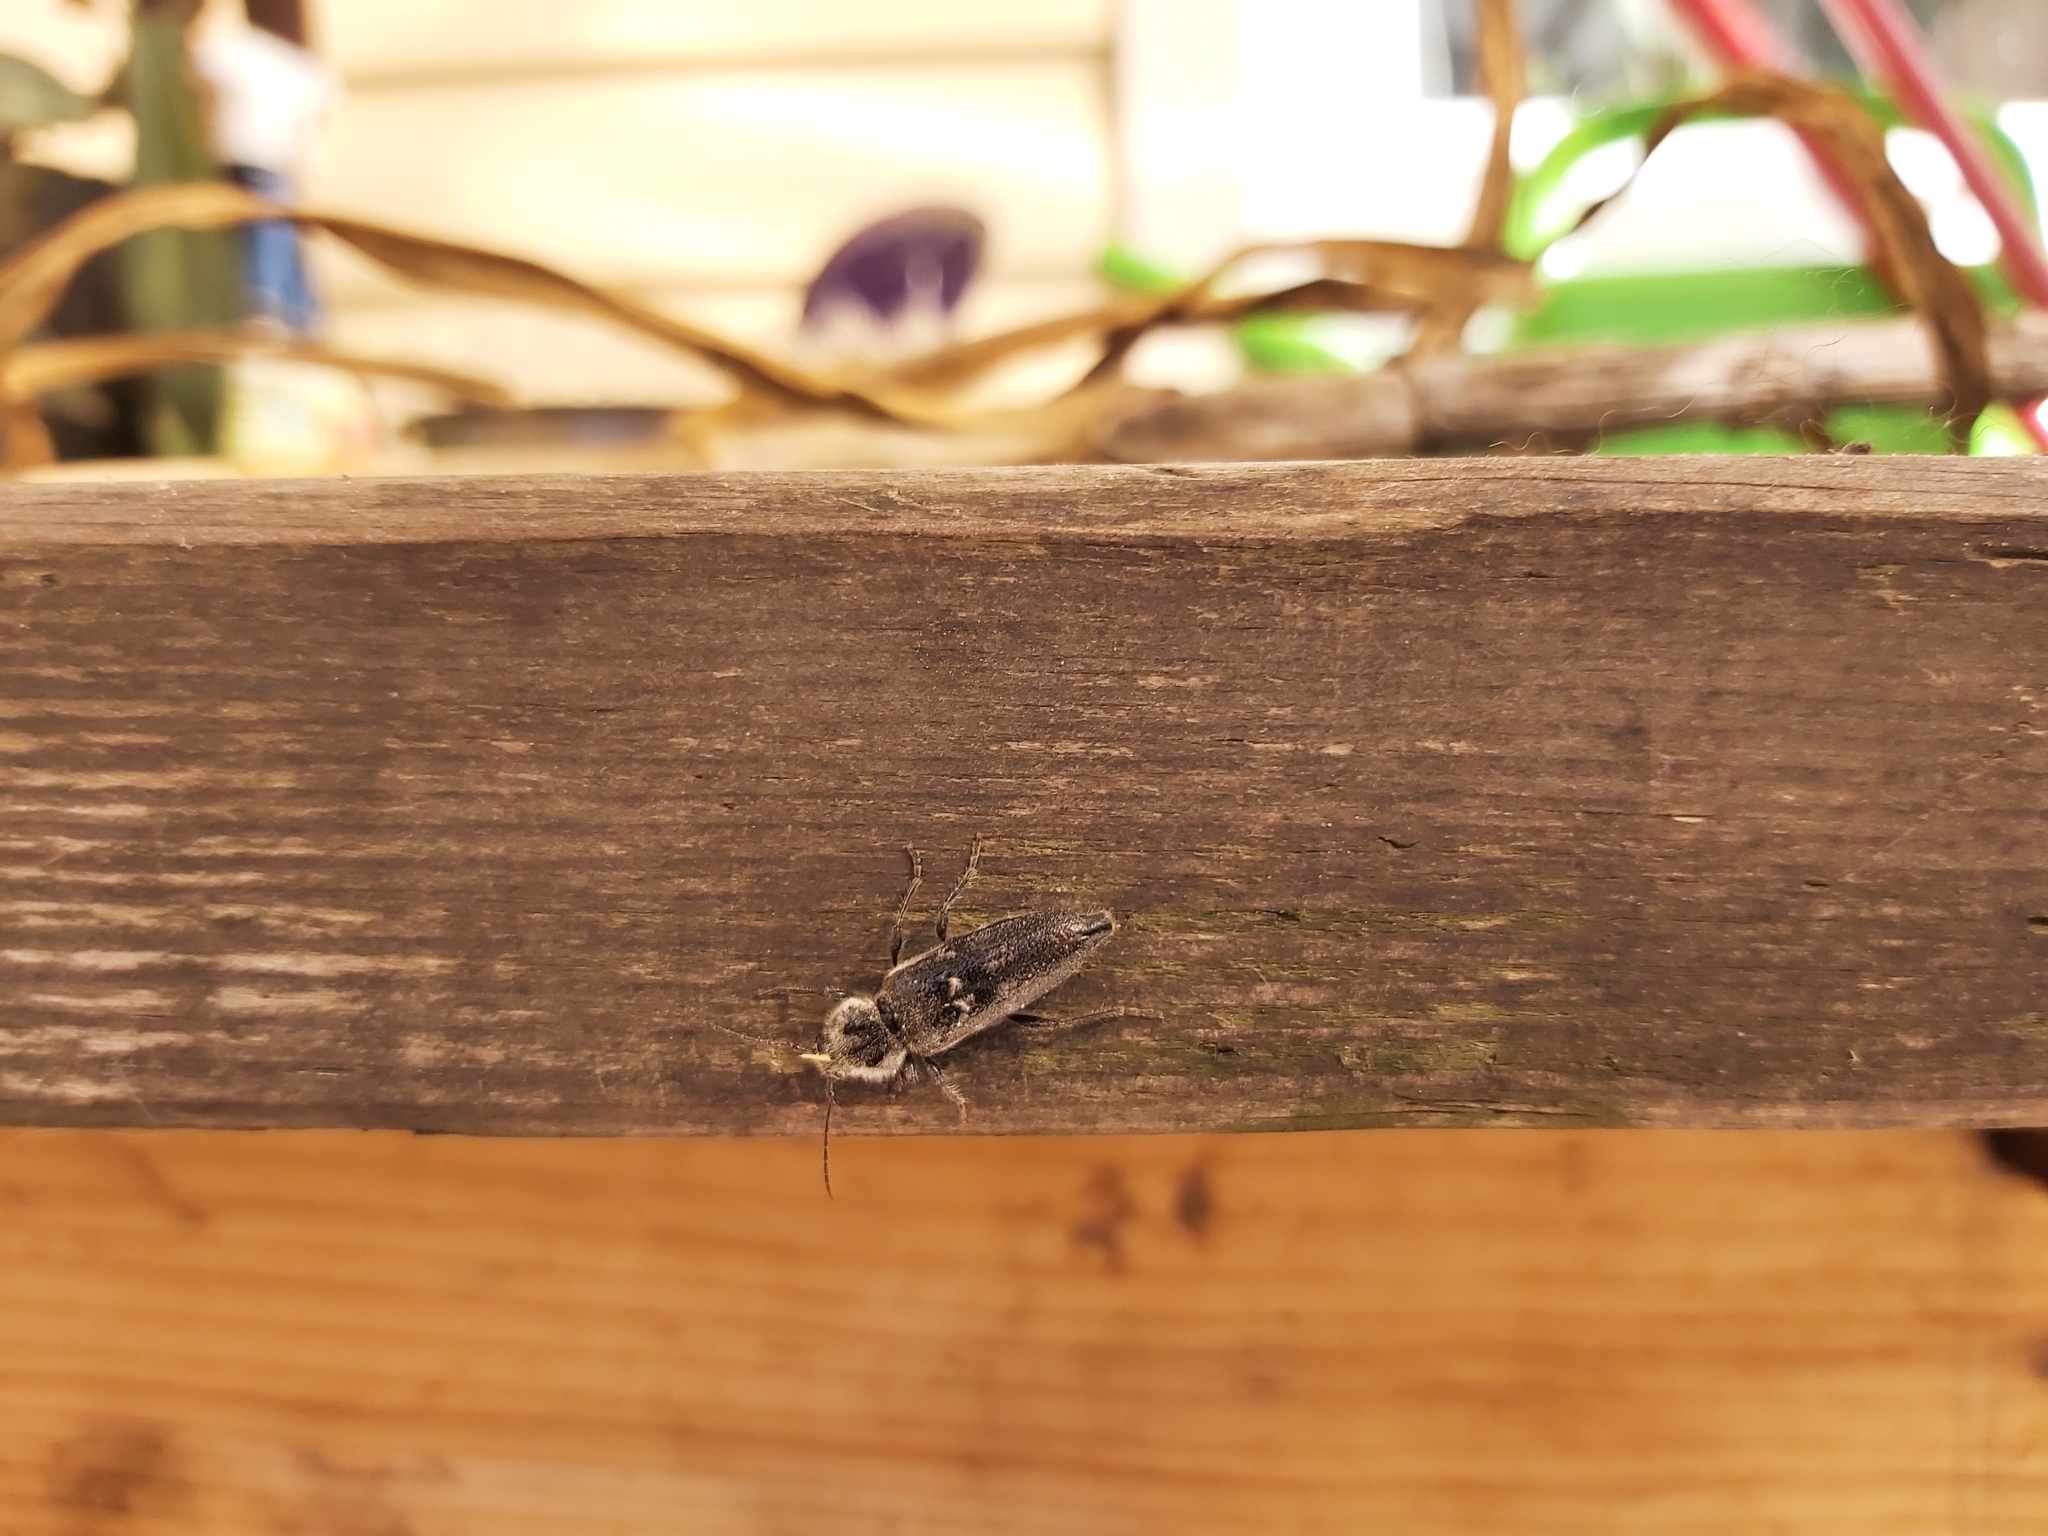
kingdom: Animalia
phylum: Arthropoda
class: Insecta
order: Coleoptera
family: Cerambycidae
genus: Hylotrupes
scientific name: Hylotrupes bajulus
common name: Old house borer
